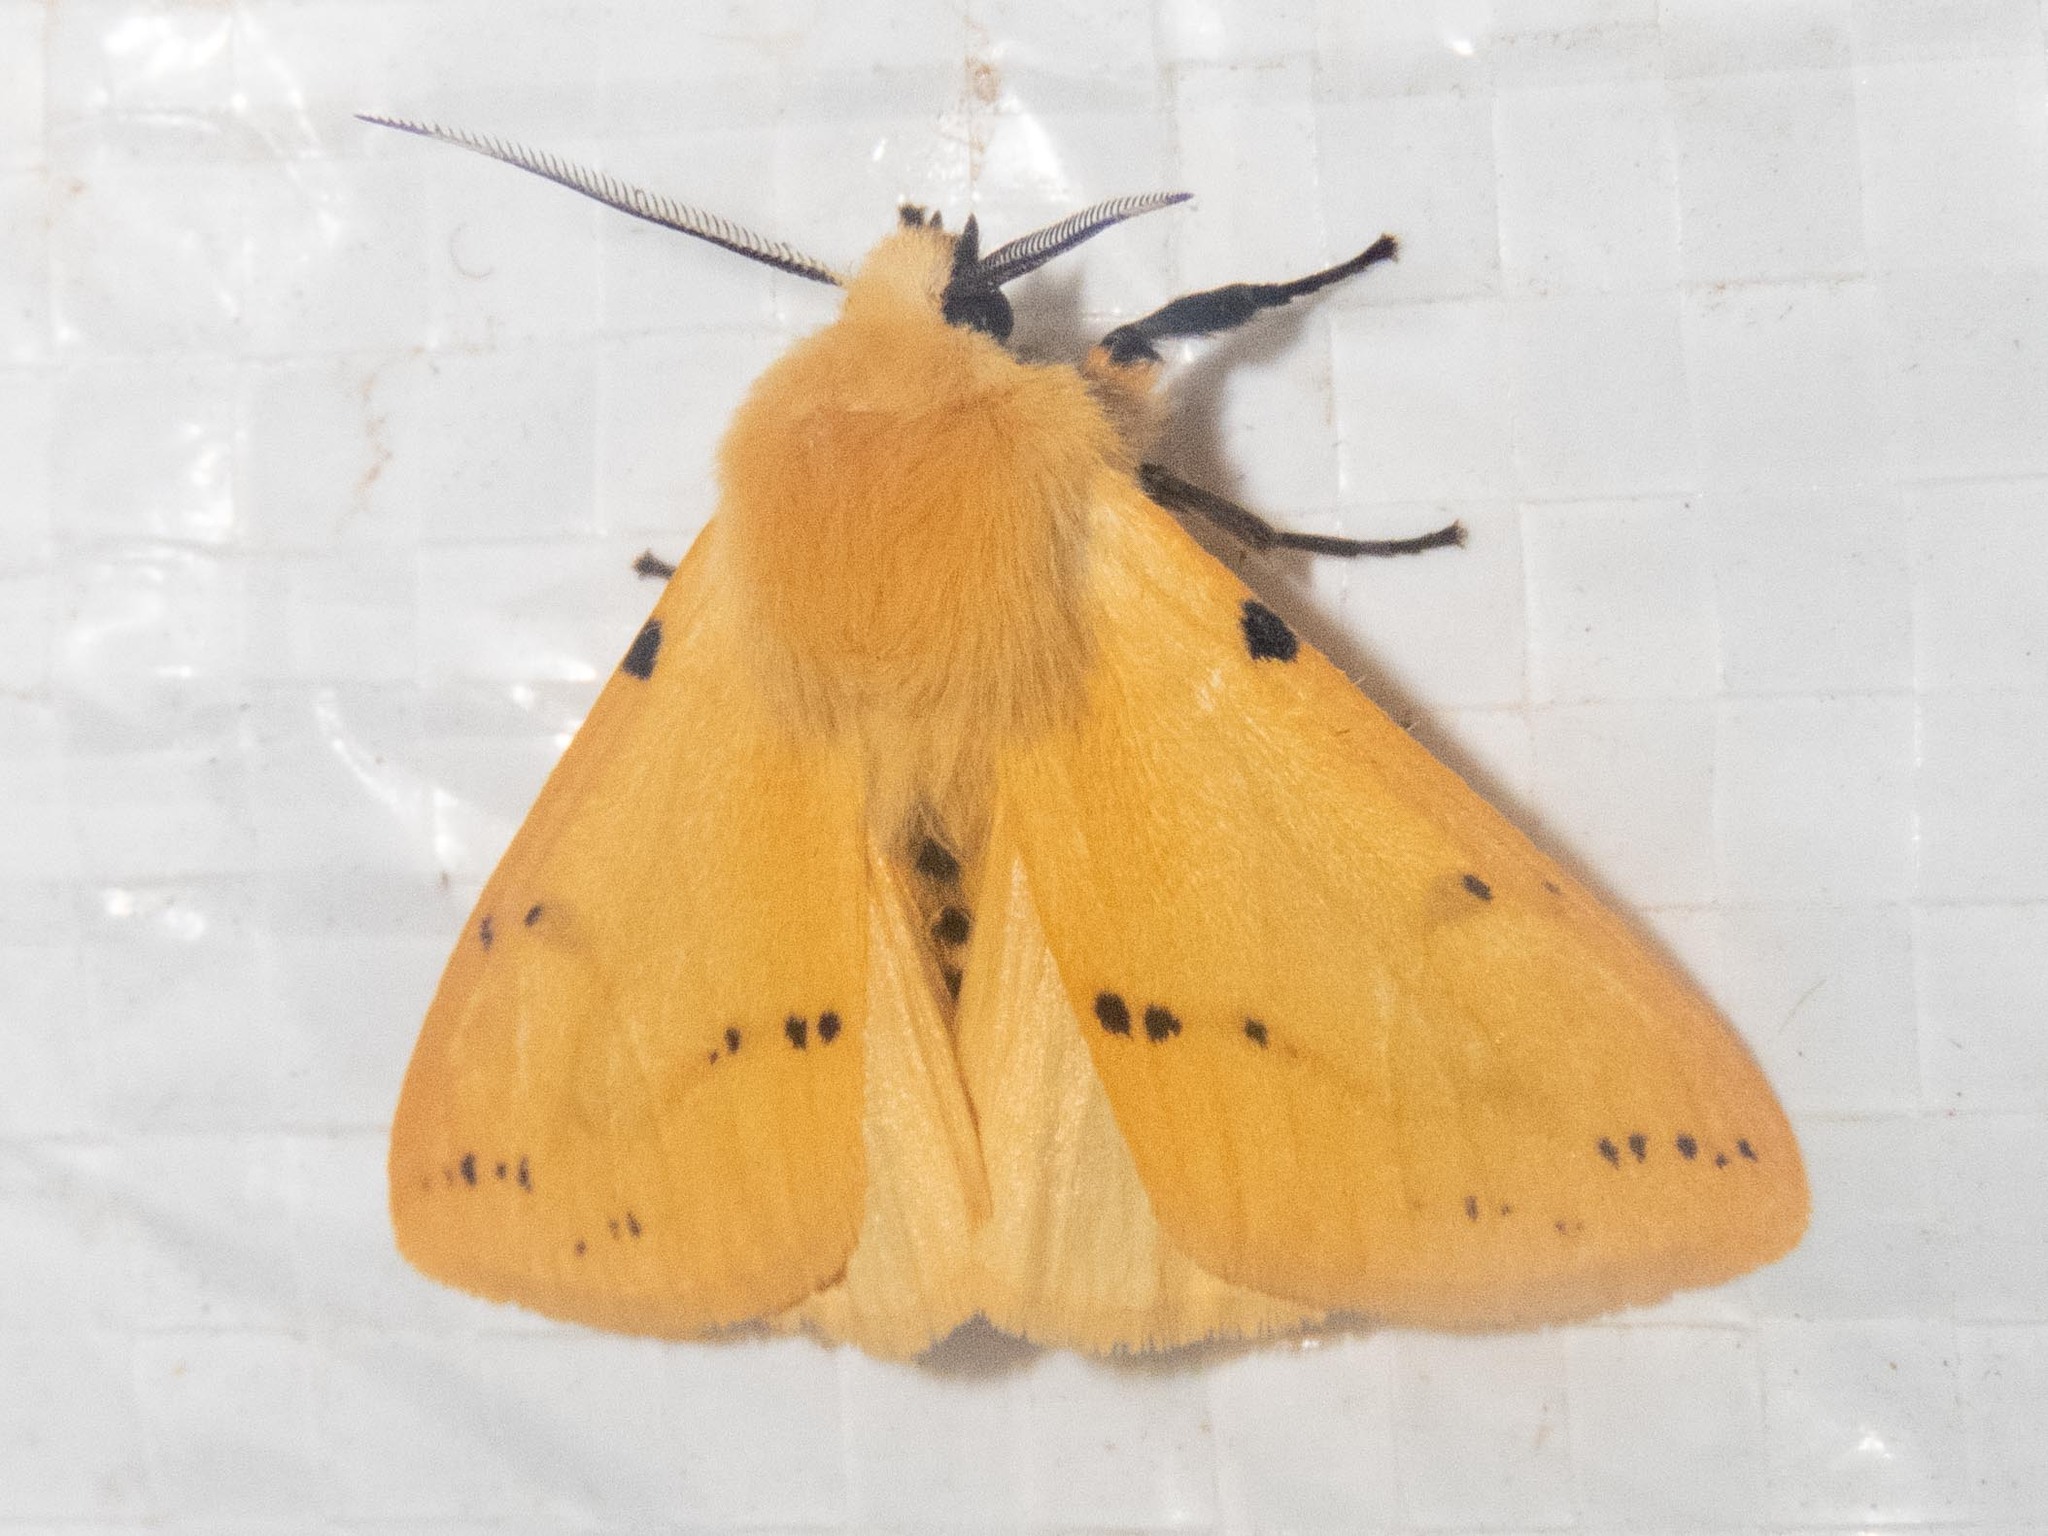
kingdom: Animalia
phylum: Arthropoda
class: Insecta
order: Lepidoptera
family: Erebidae
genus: Spilarctia
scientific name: Spilarctia lutea
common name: Buff ermine
